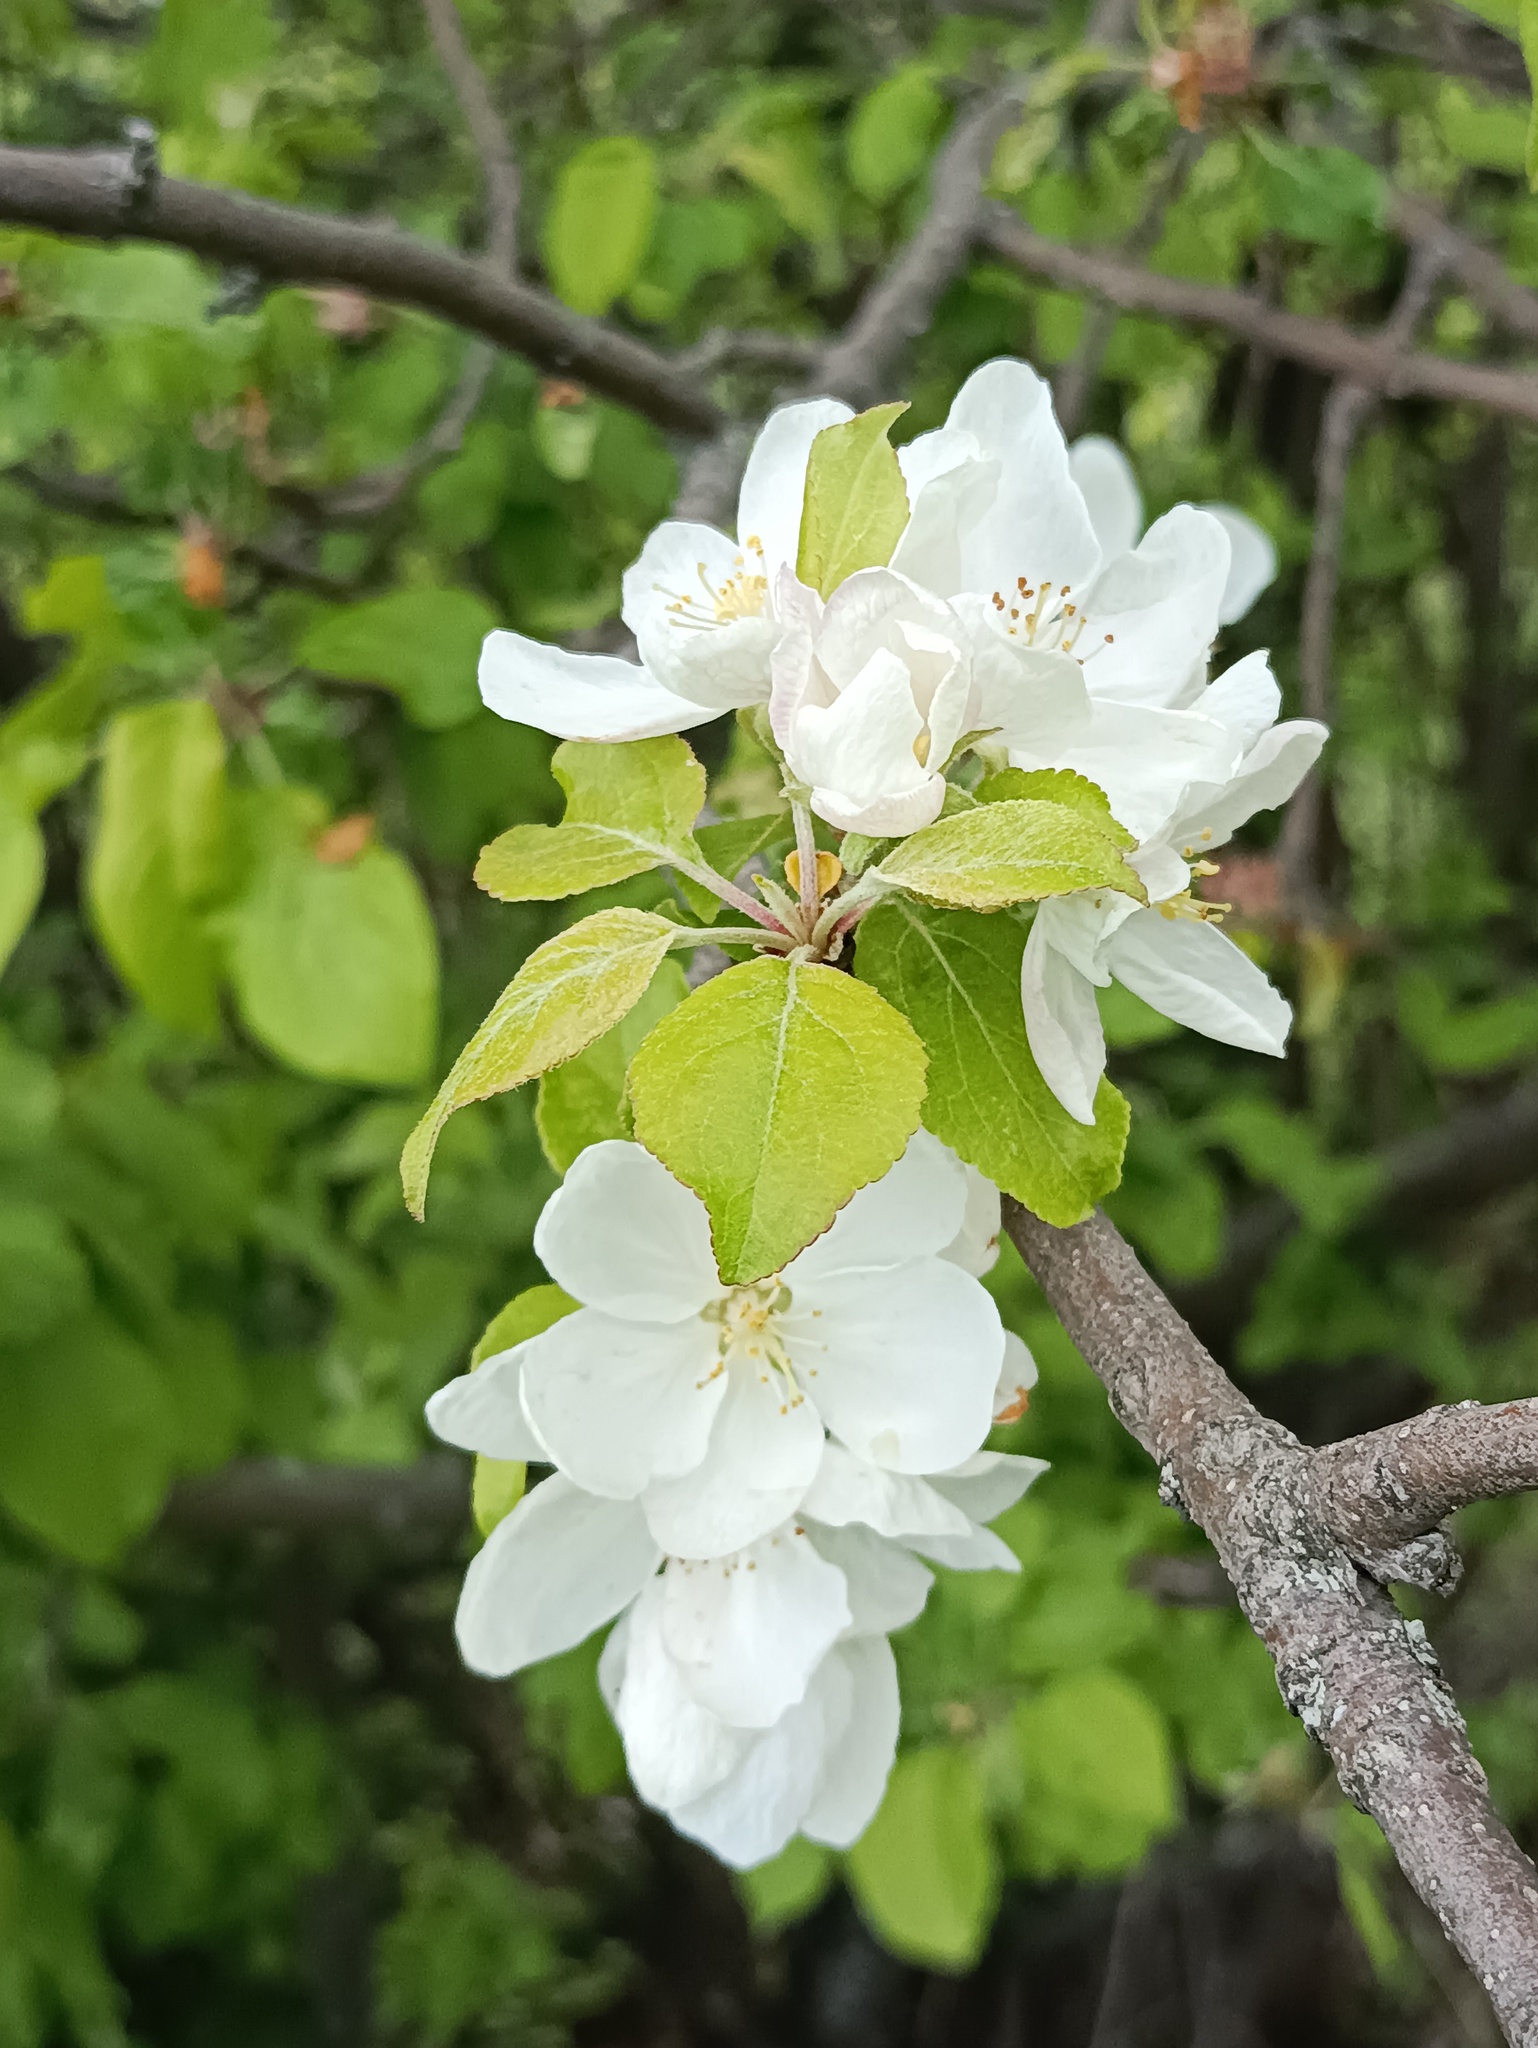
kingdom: Plantae
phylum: Tracheophyta
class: Magnoliopsida
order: Rosales
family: Rosaceae
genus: Malus
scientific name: Malus domestica
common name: Apple
